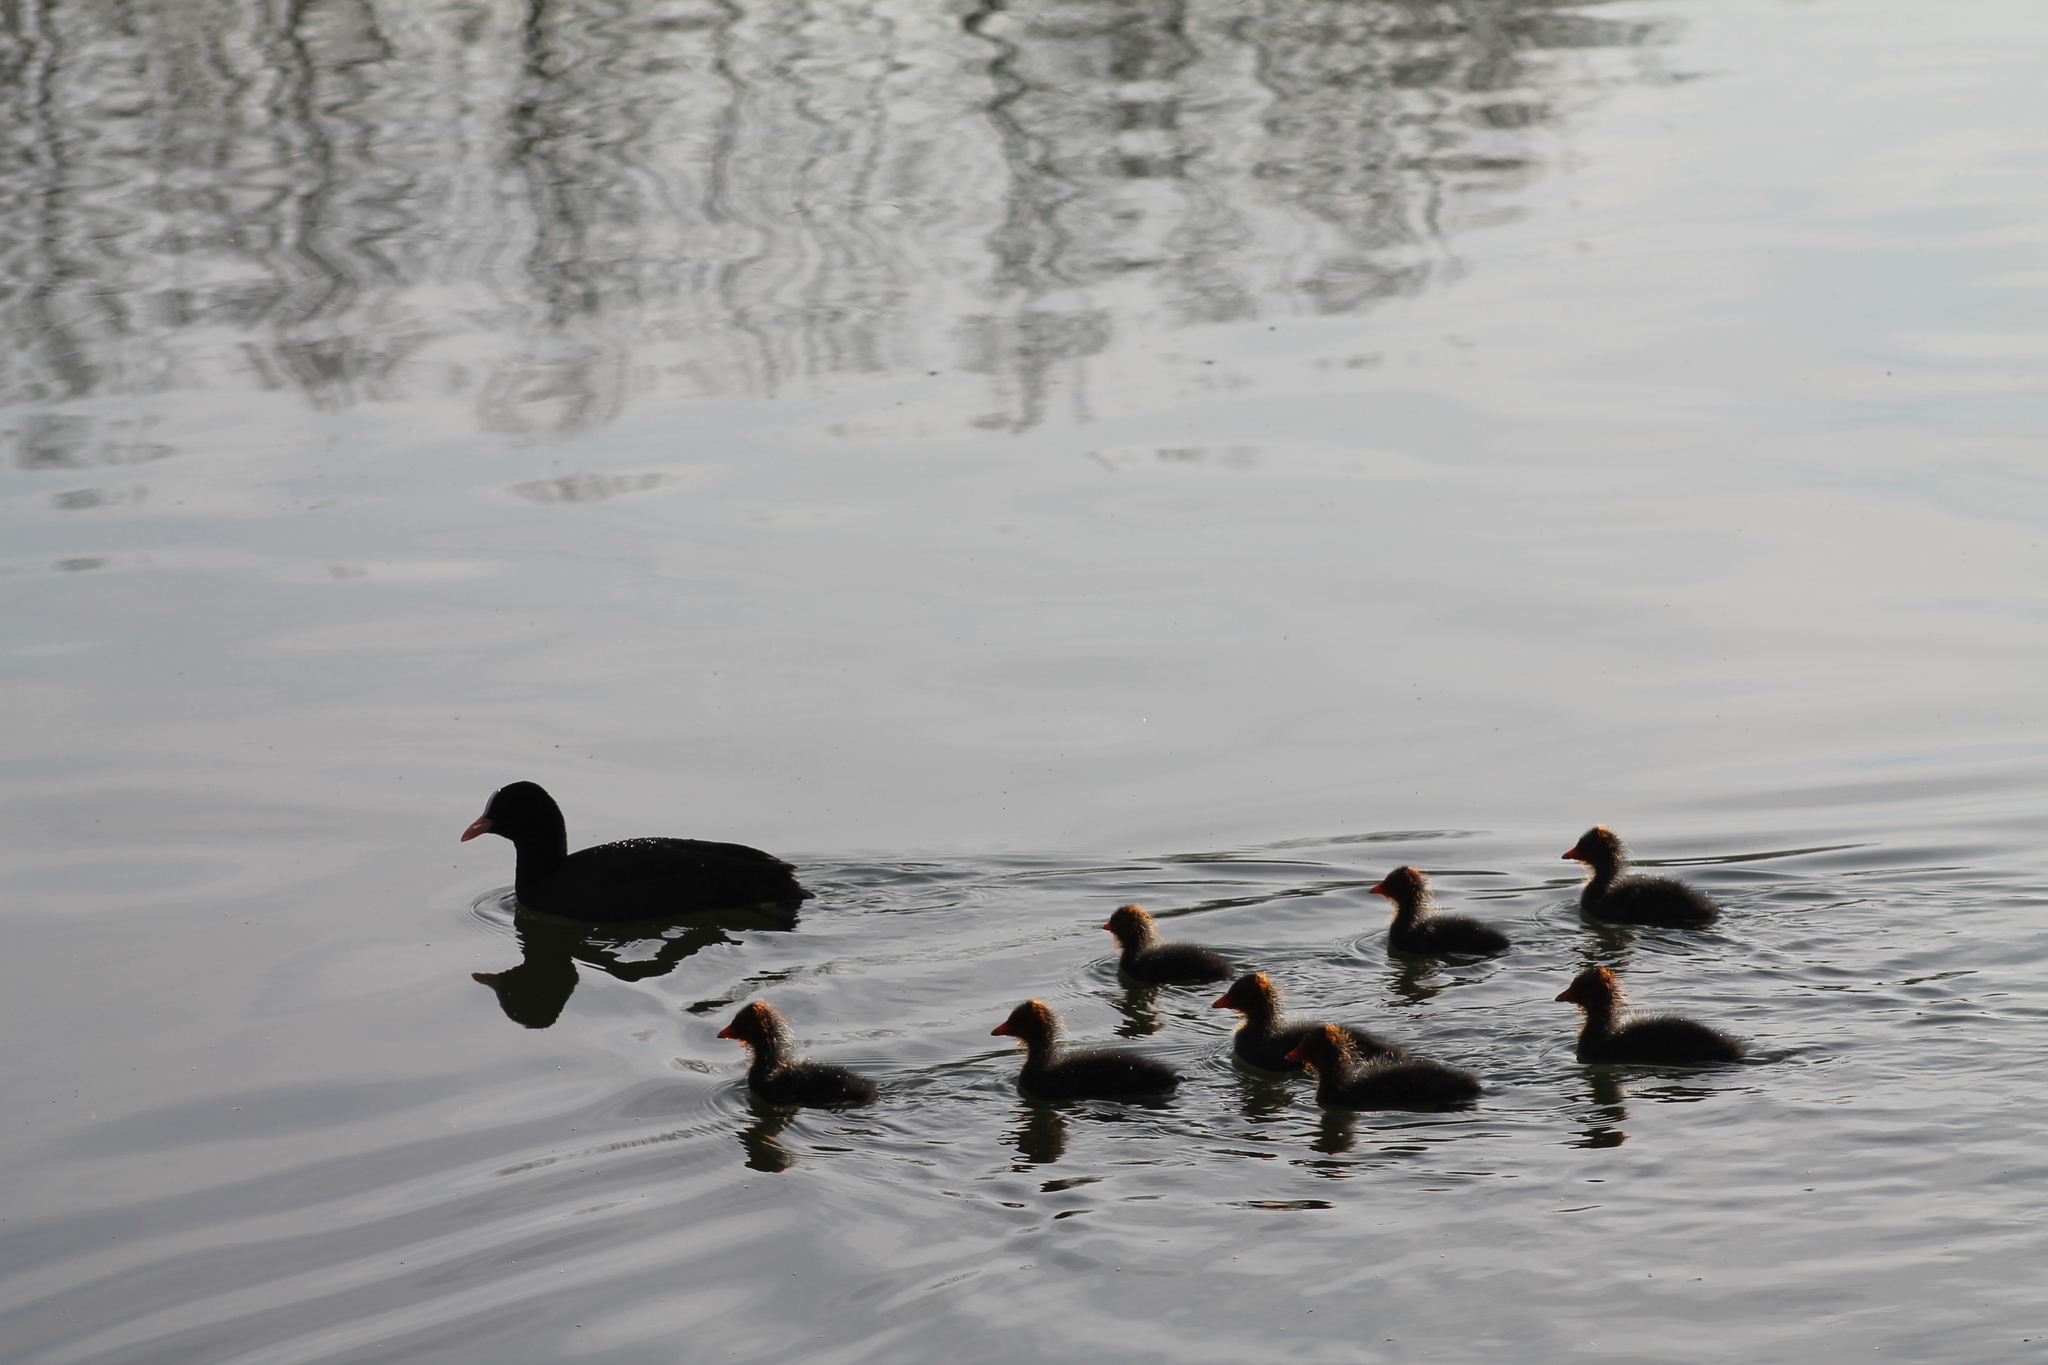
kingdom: Animalia
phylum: Chordata
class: Aves
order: Gruiformes
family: Rallidae
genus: Fulica
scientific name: Fulica atra
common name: Eurasian coot
